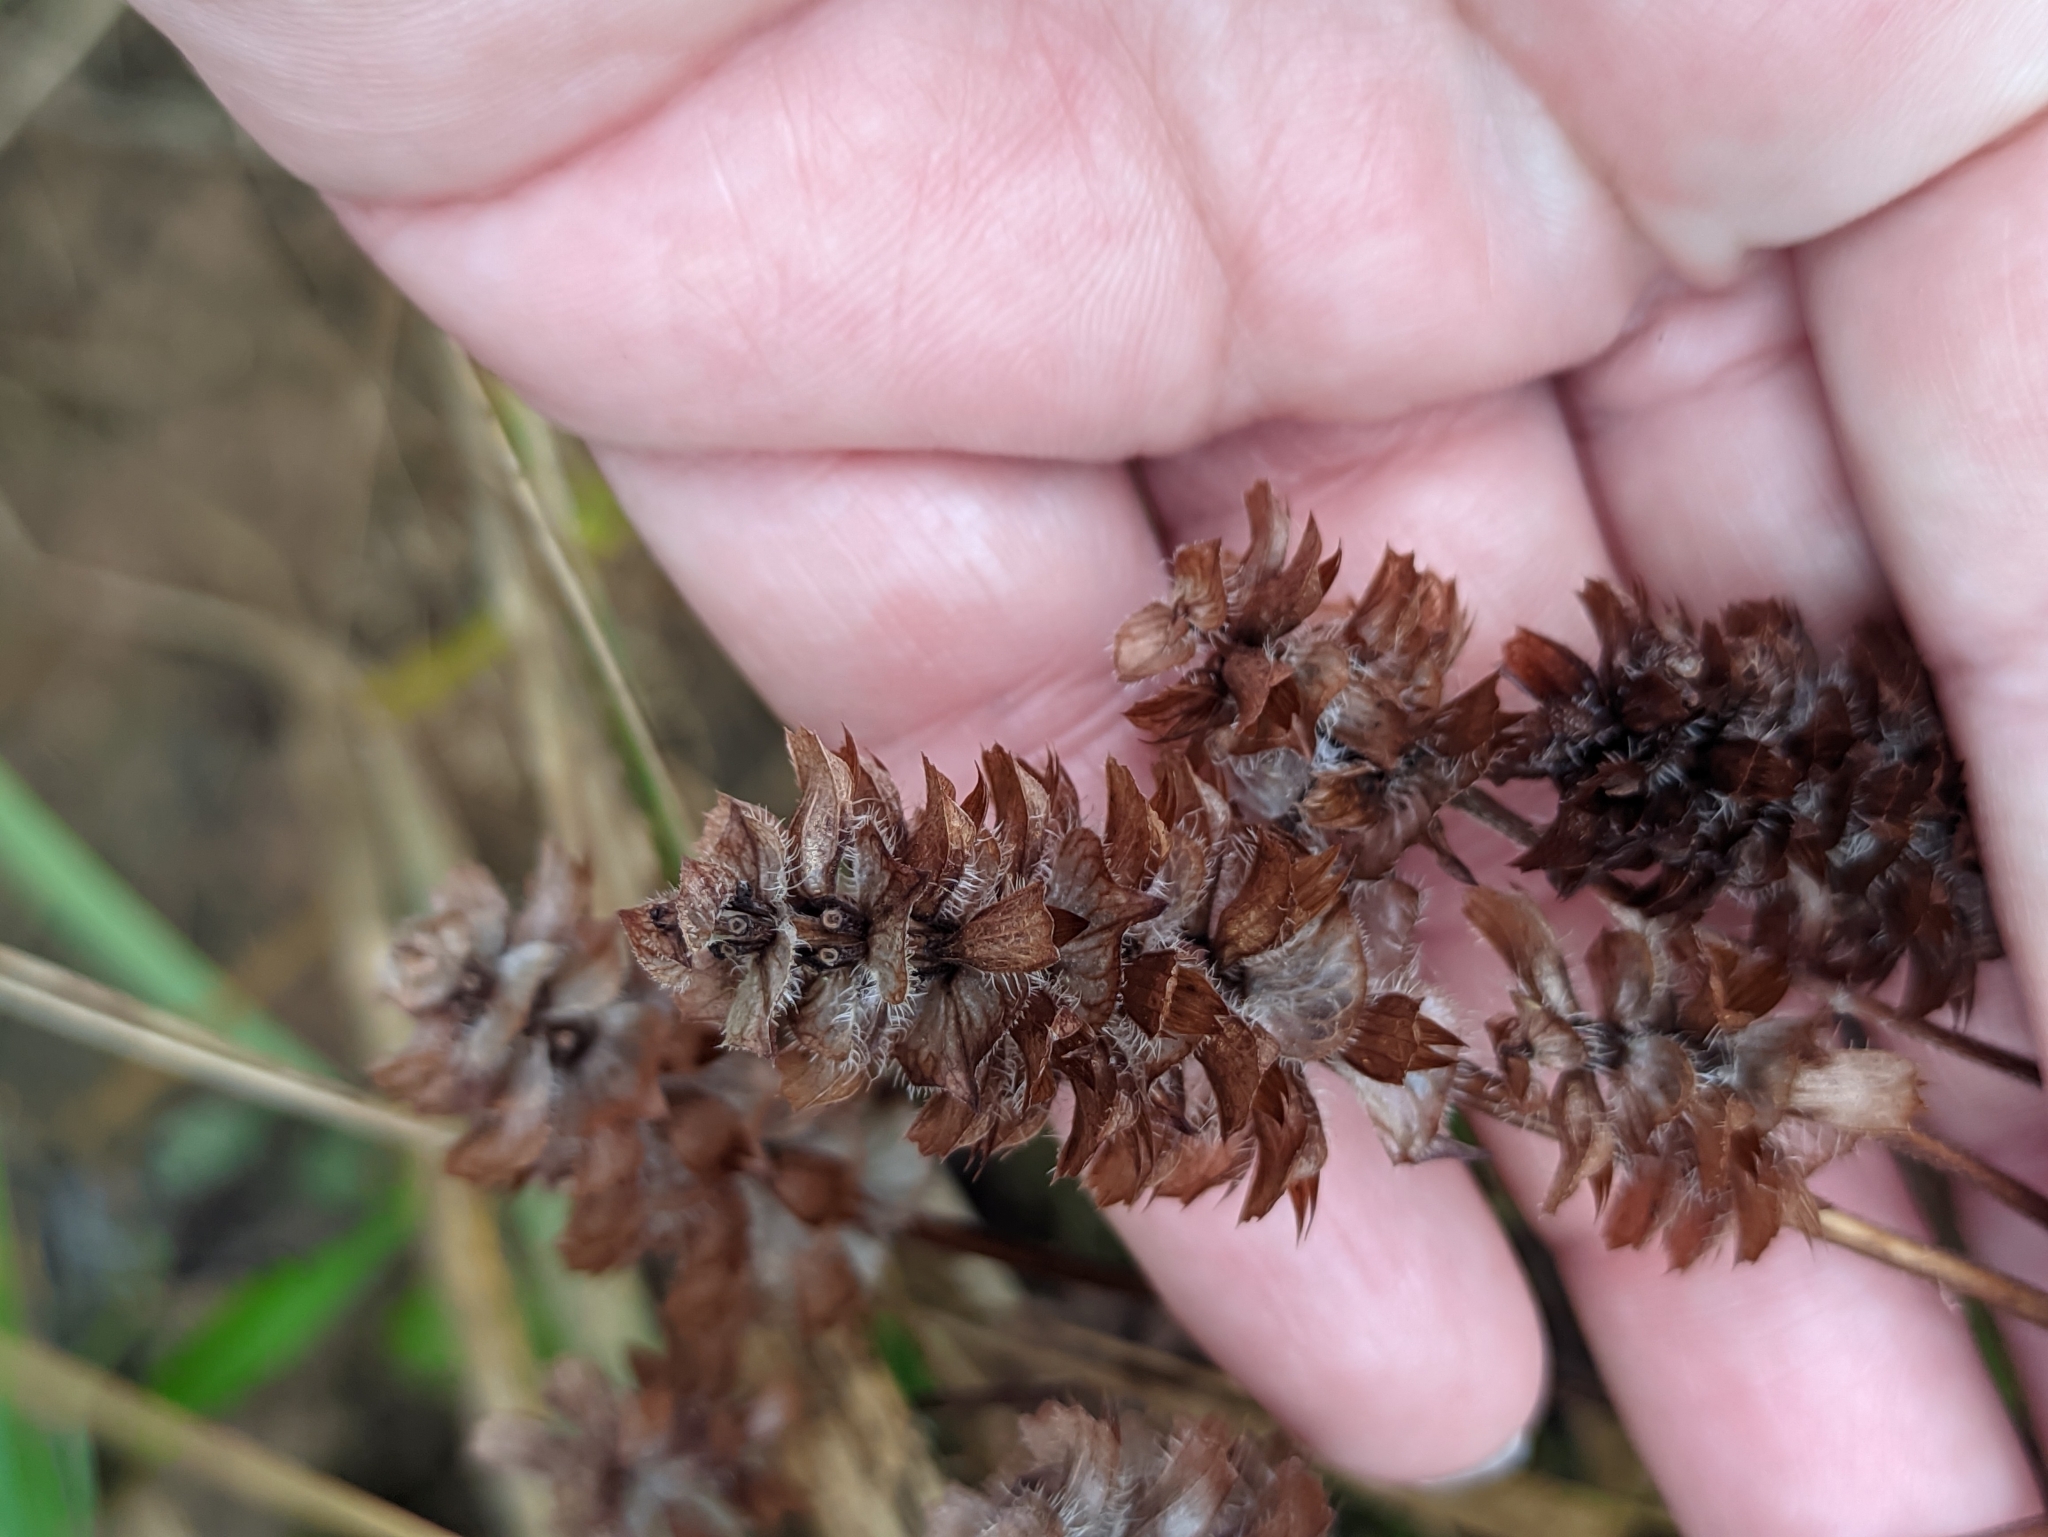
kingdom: Plantae
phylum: Tracheophyta
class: Magnoliopsida
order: Lamiales
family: Lamiaceae
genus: Prunella
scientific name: Prunella vulgaris
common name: Heal-all
